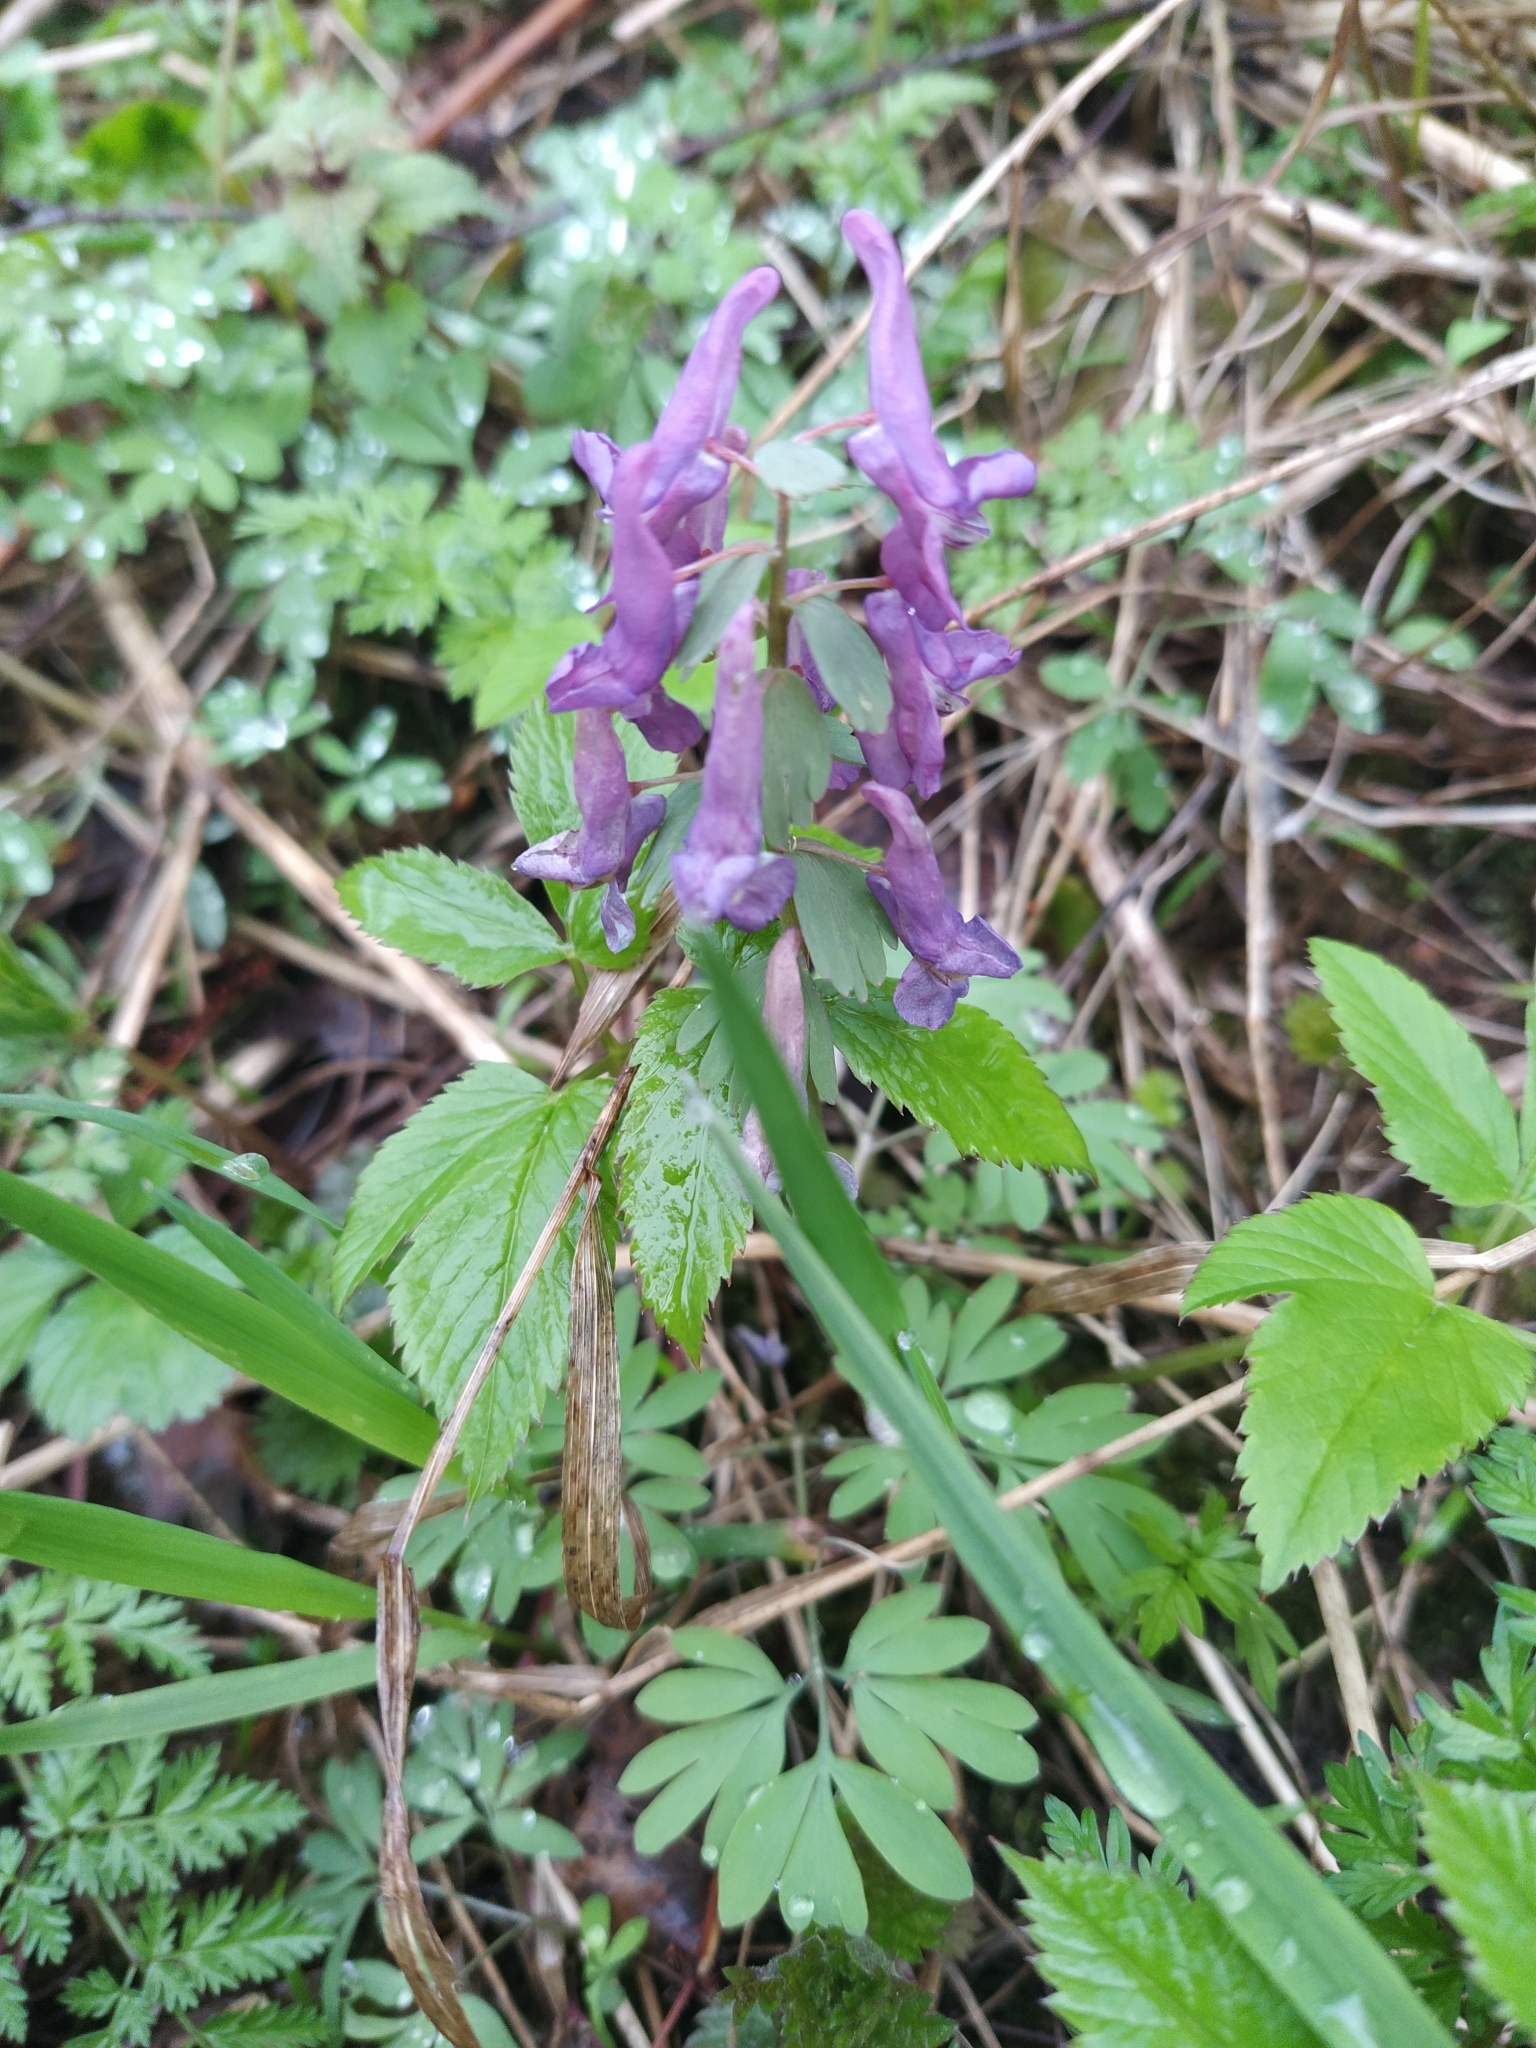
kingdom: Plantae
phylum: Tracheophyta
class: Magnoliopsida
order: Ranunculales
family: Papaveraceae
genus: Corydalis
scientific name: Corydalis solida
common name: Bird-in-a-bush
